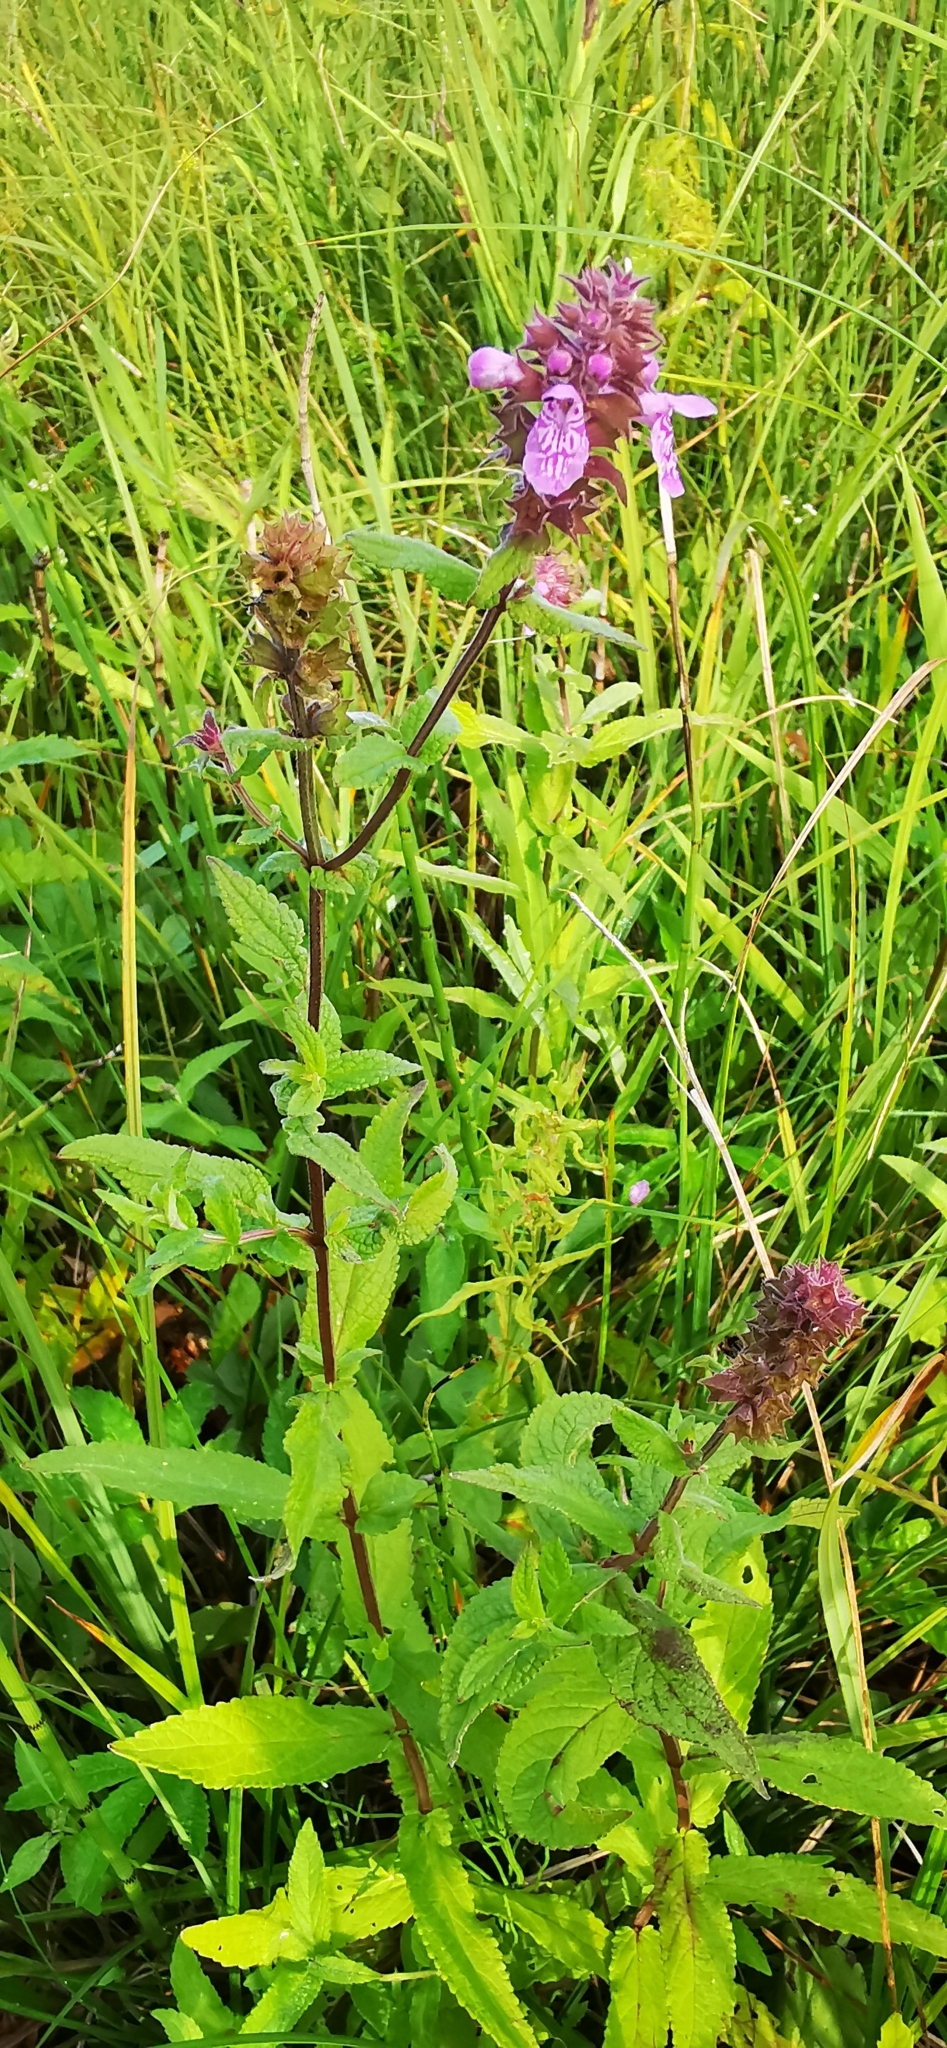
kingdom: Plantae
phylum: Tracheophyta
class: Magnoliopsida
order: Lamiales
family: Lamiaceae
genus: Stachys
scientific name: Stachys palustris
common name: Marsh woundwort
